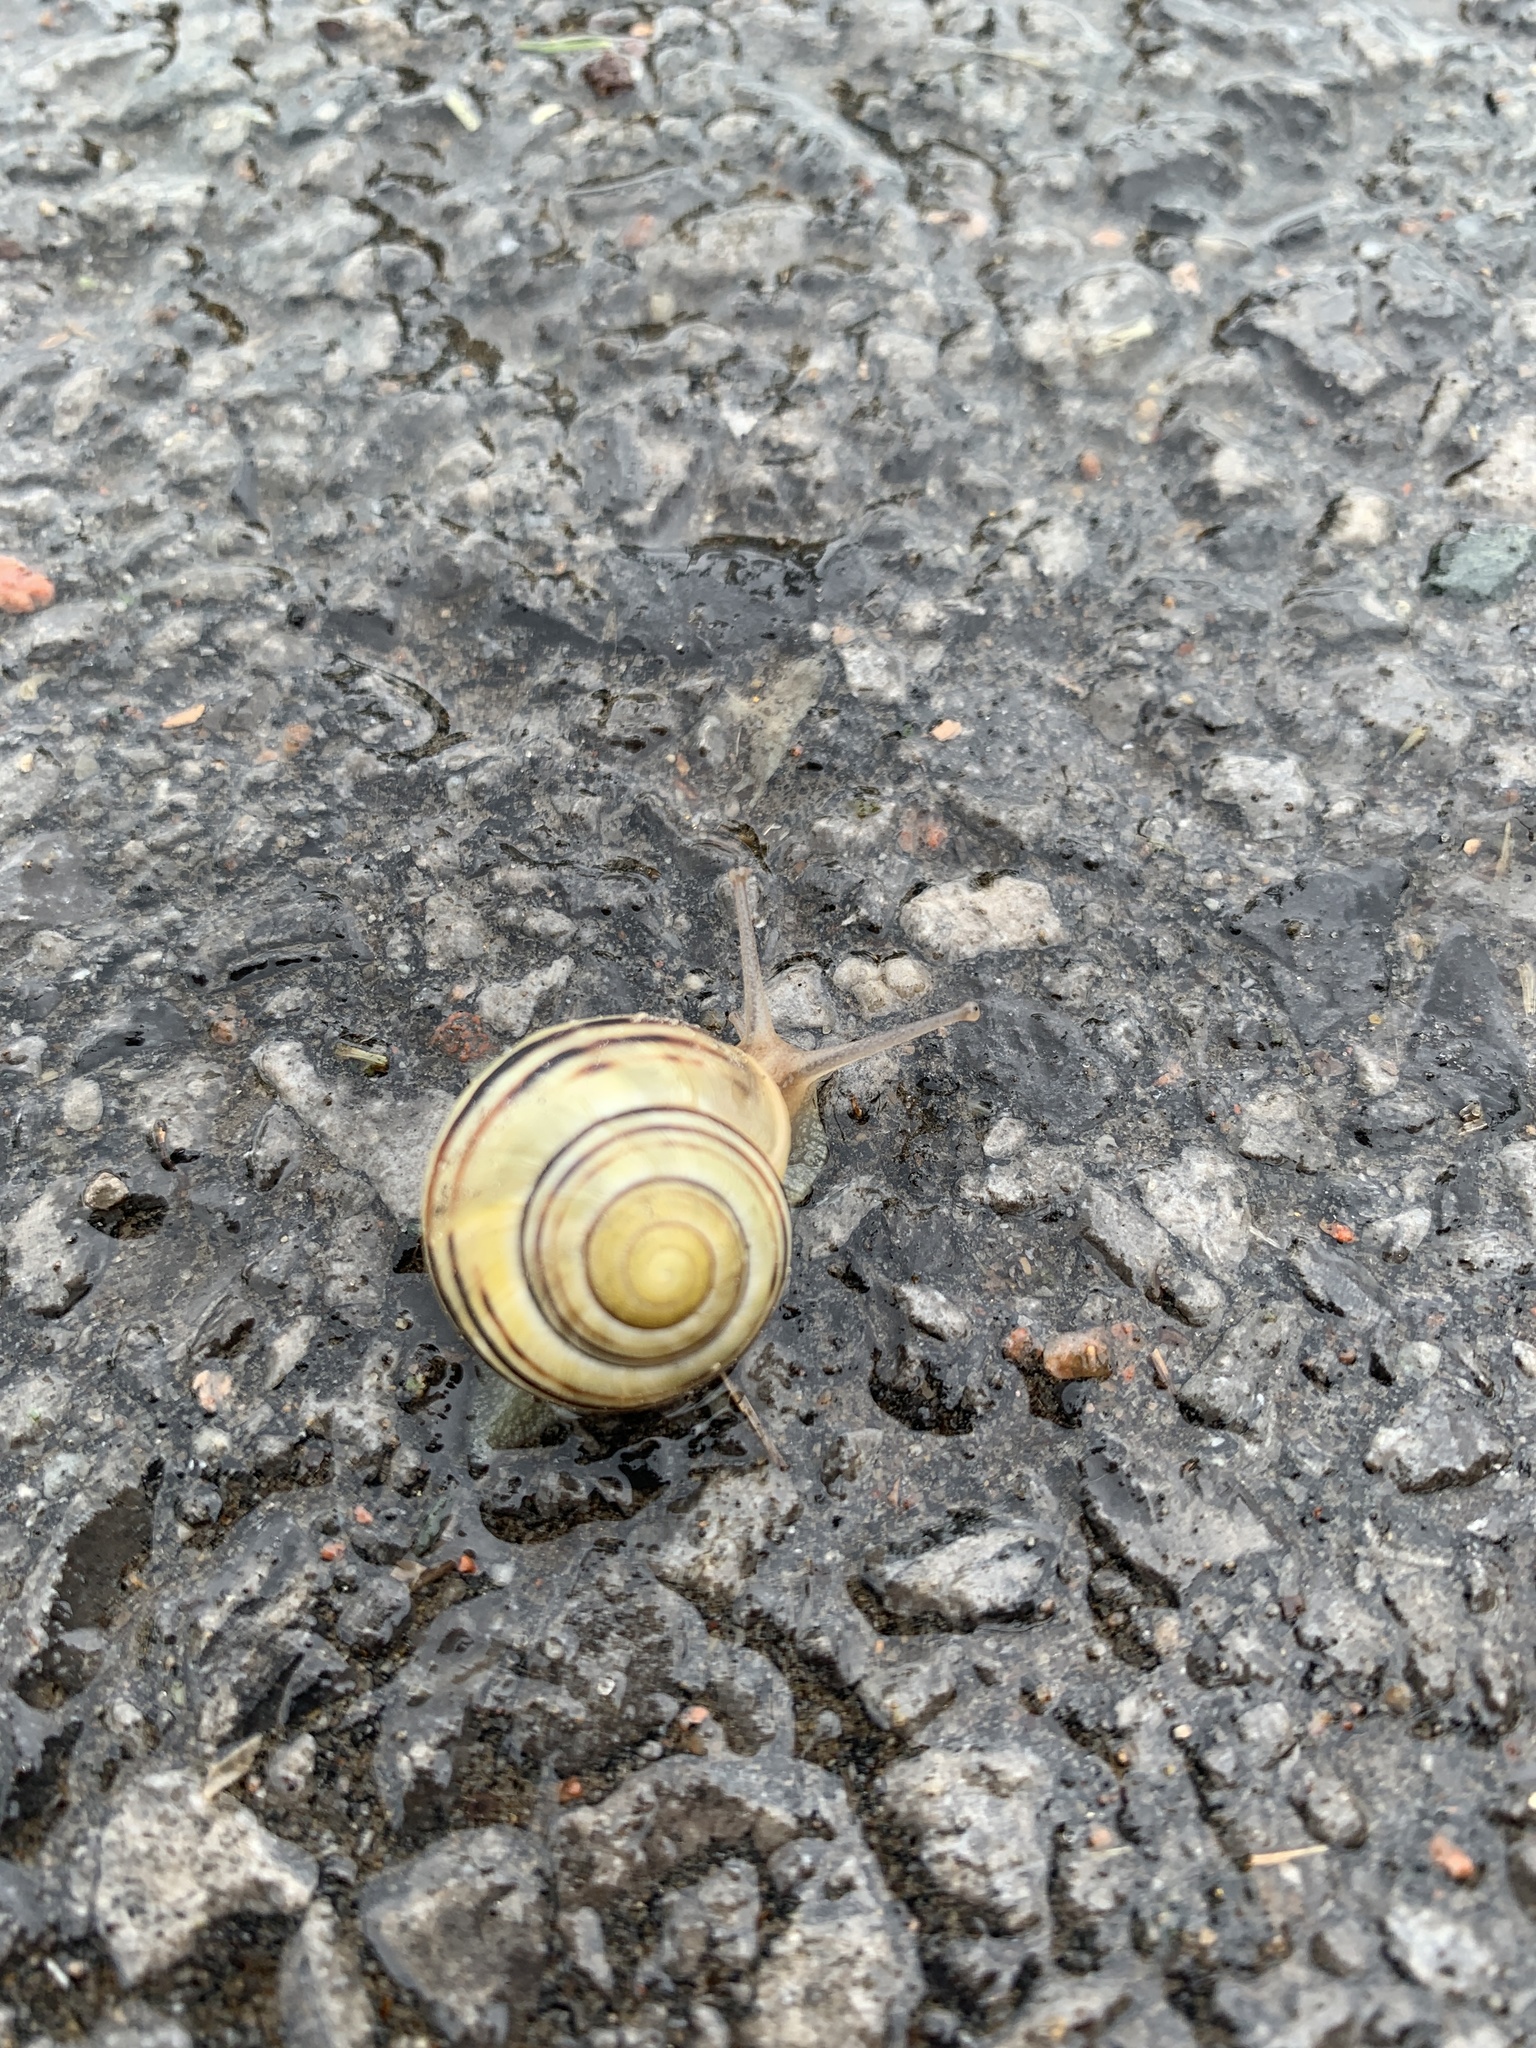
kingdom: Animalia
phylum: Mollusca
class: Gastropoda
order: Stylommatophora
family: Helicidae
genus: Cepaea
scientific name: Cepaea
